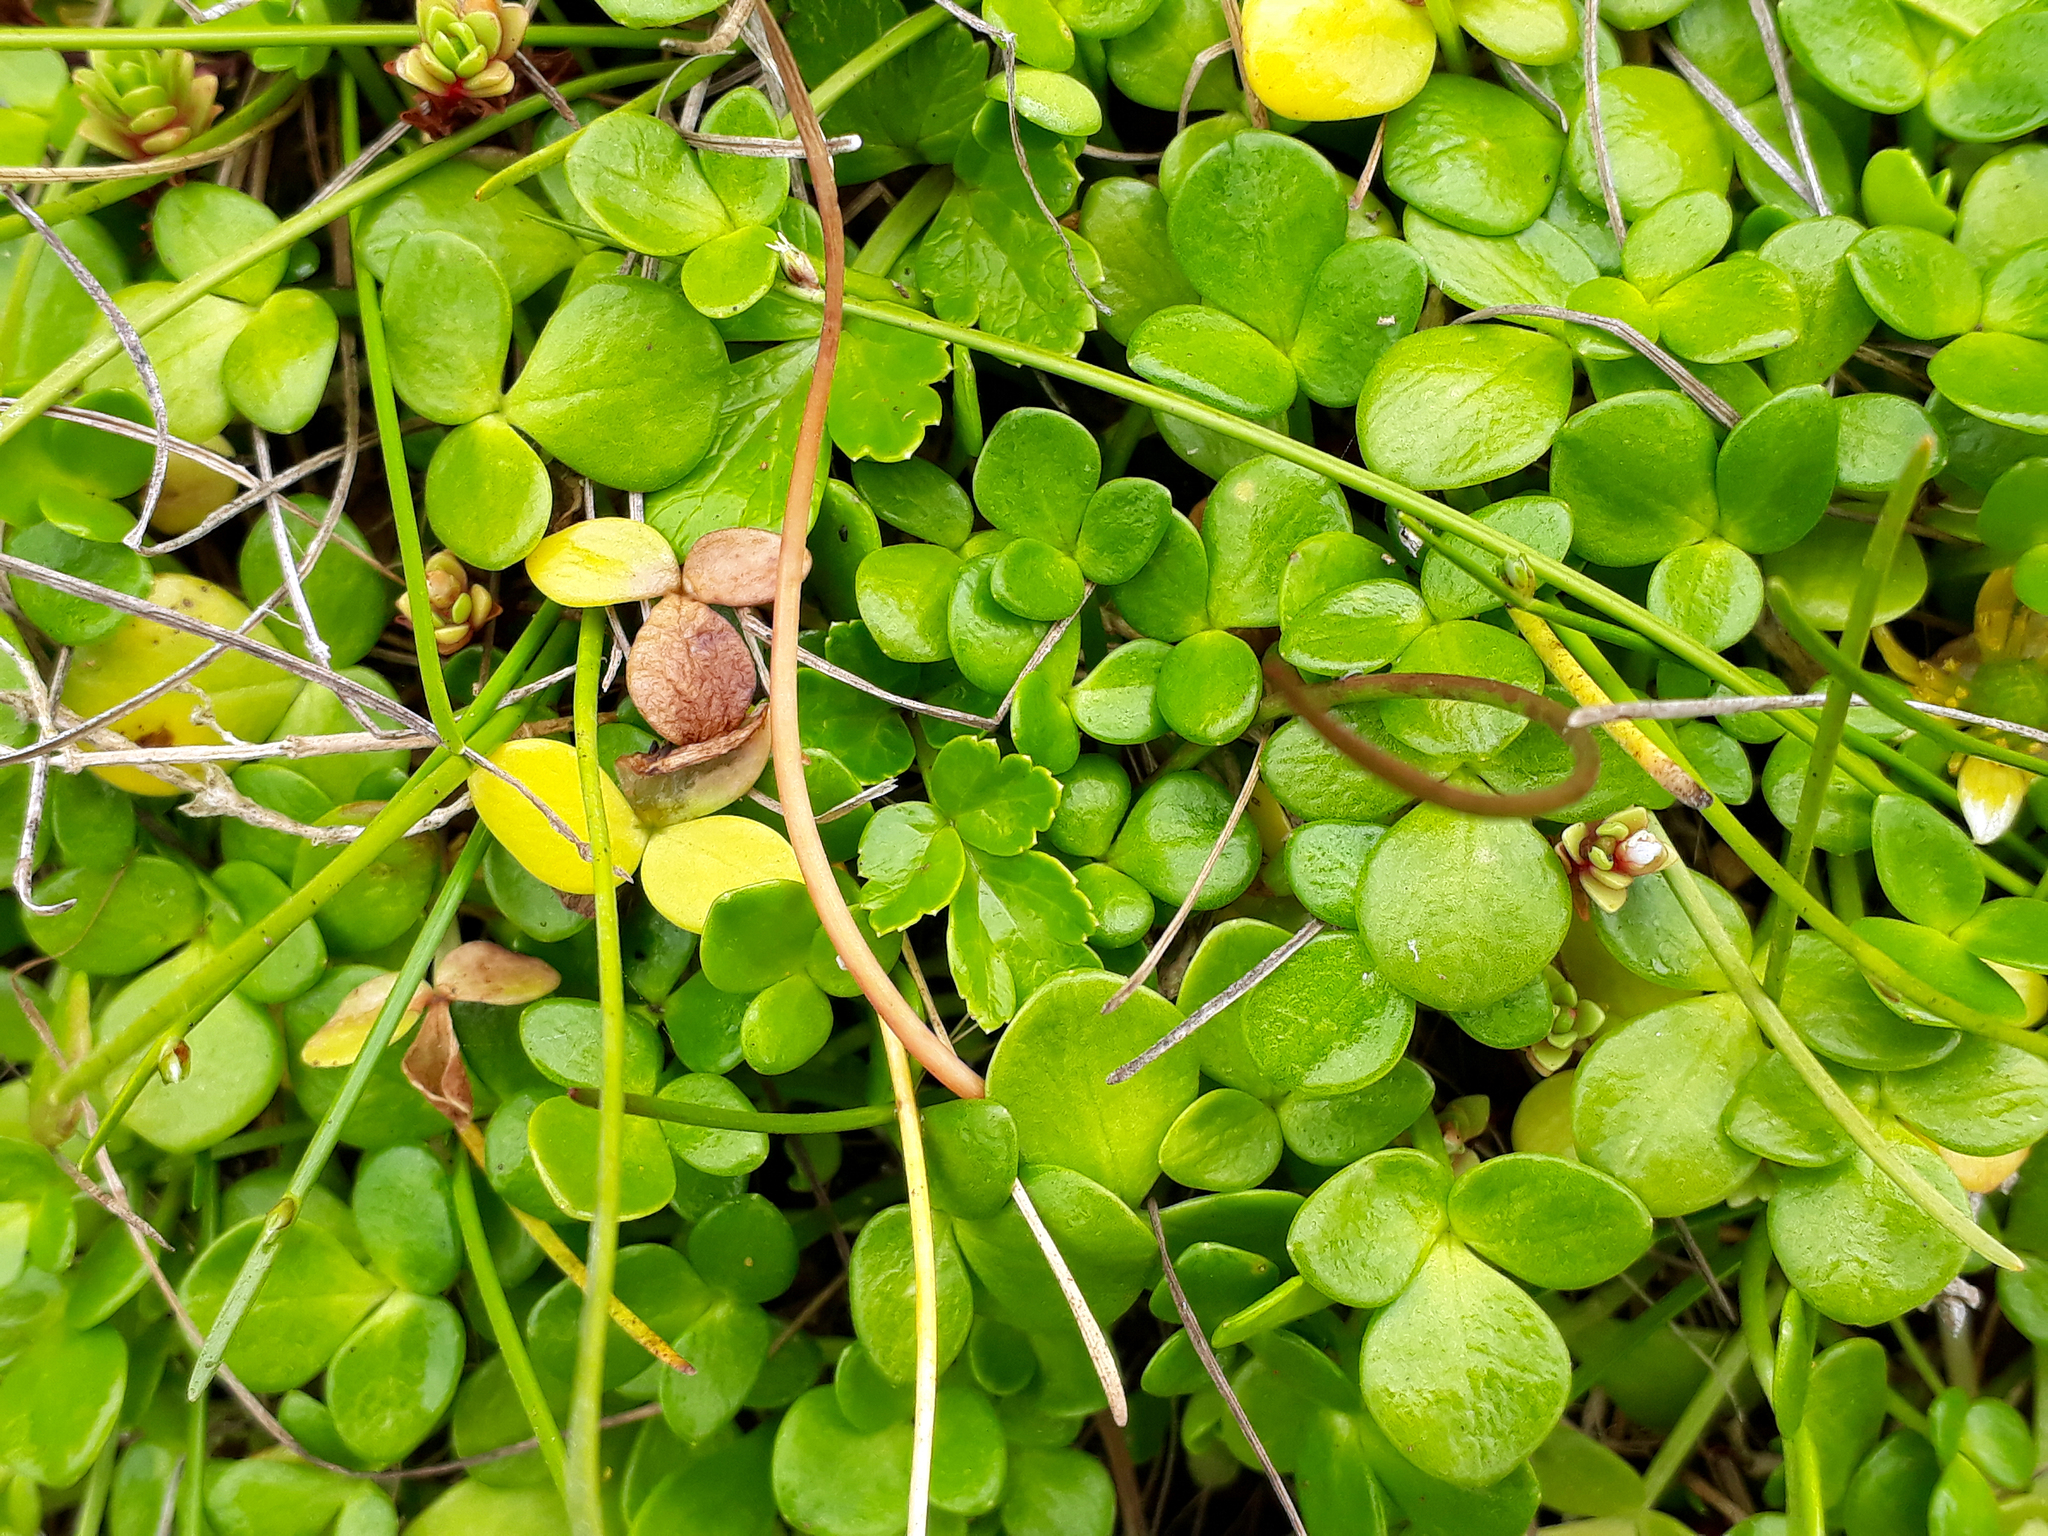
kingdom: Plantae
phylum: Tracheophyta
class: Magnoliopsida
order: Ranunculales
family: Ranunculaceae
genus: Ranunculus
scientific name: Ranunculus acaulis
